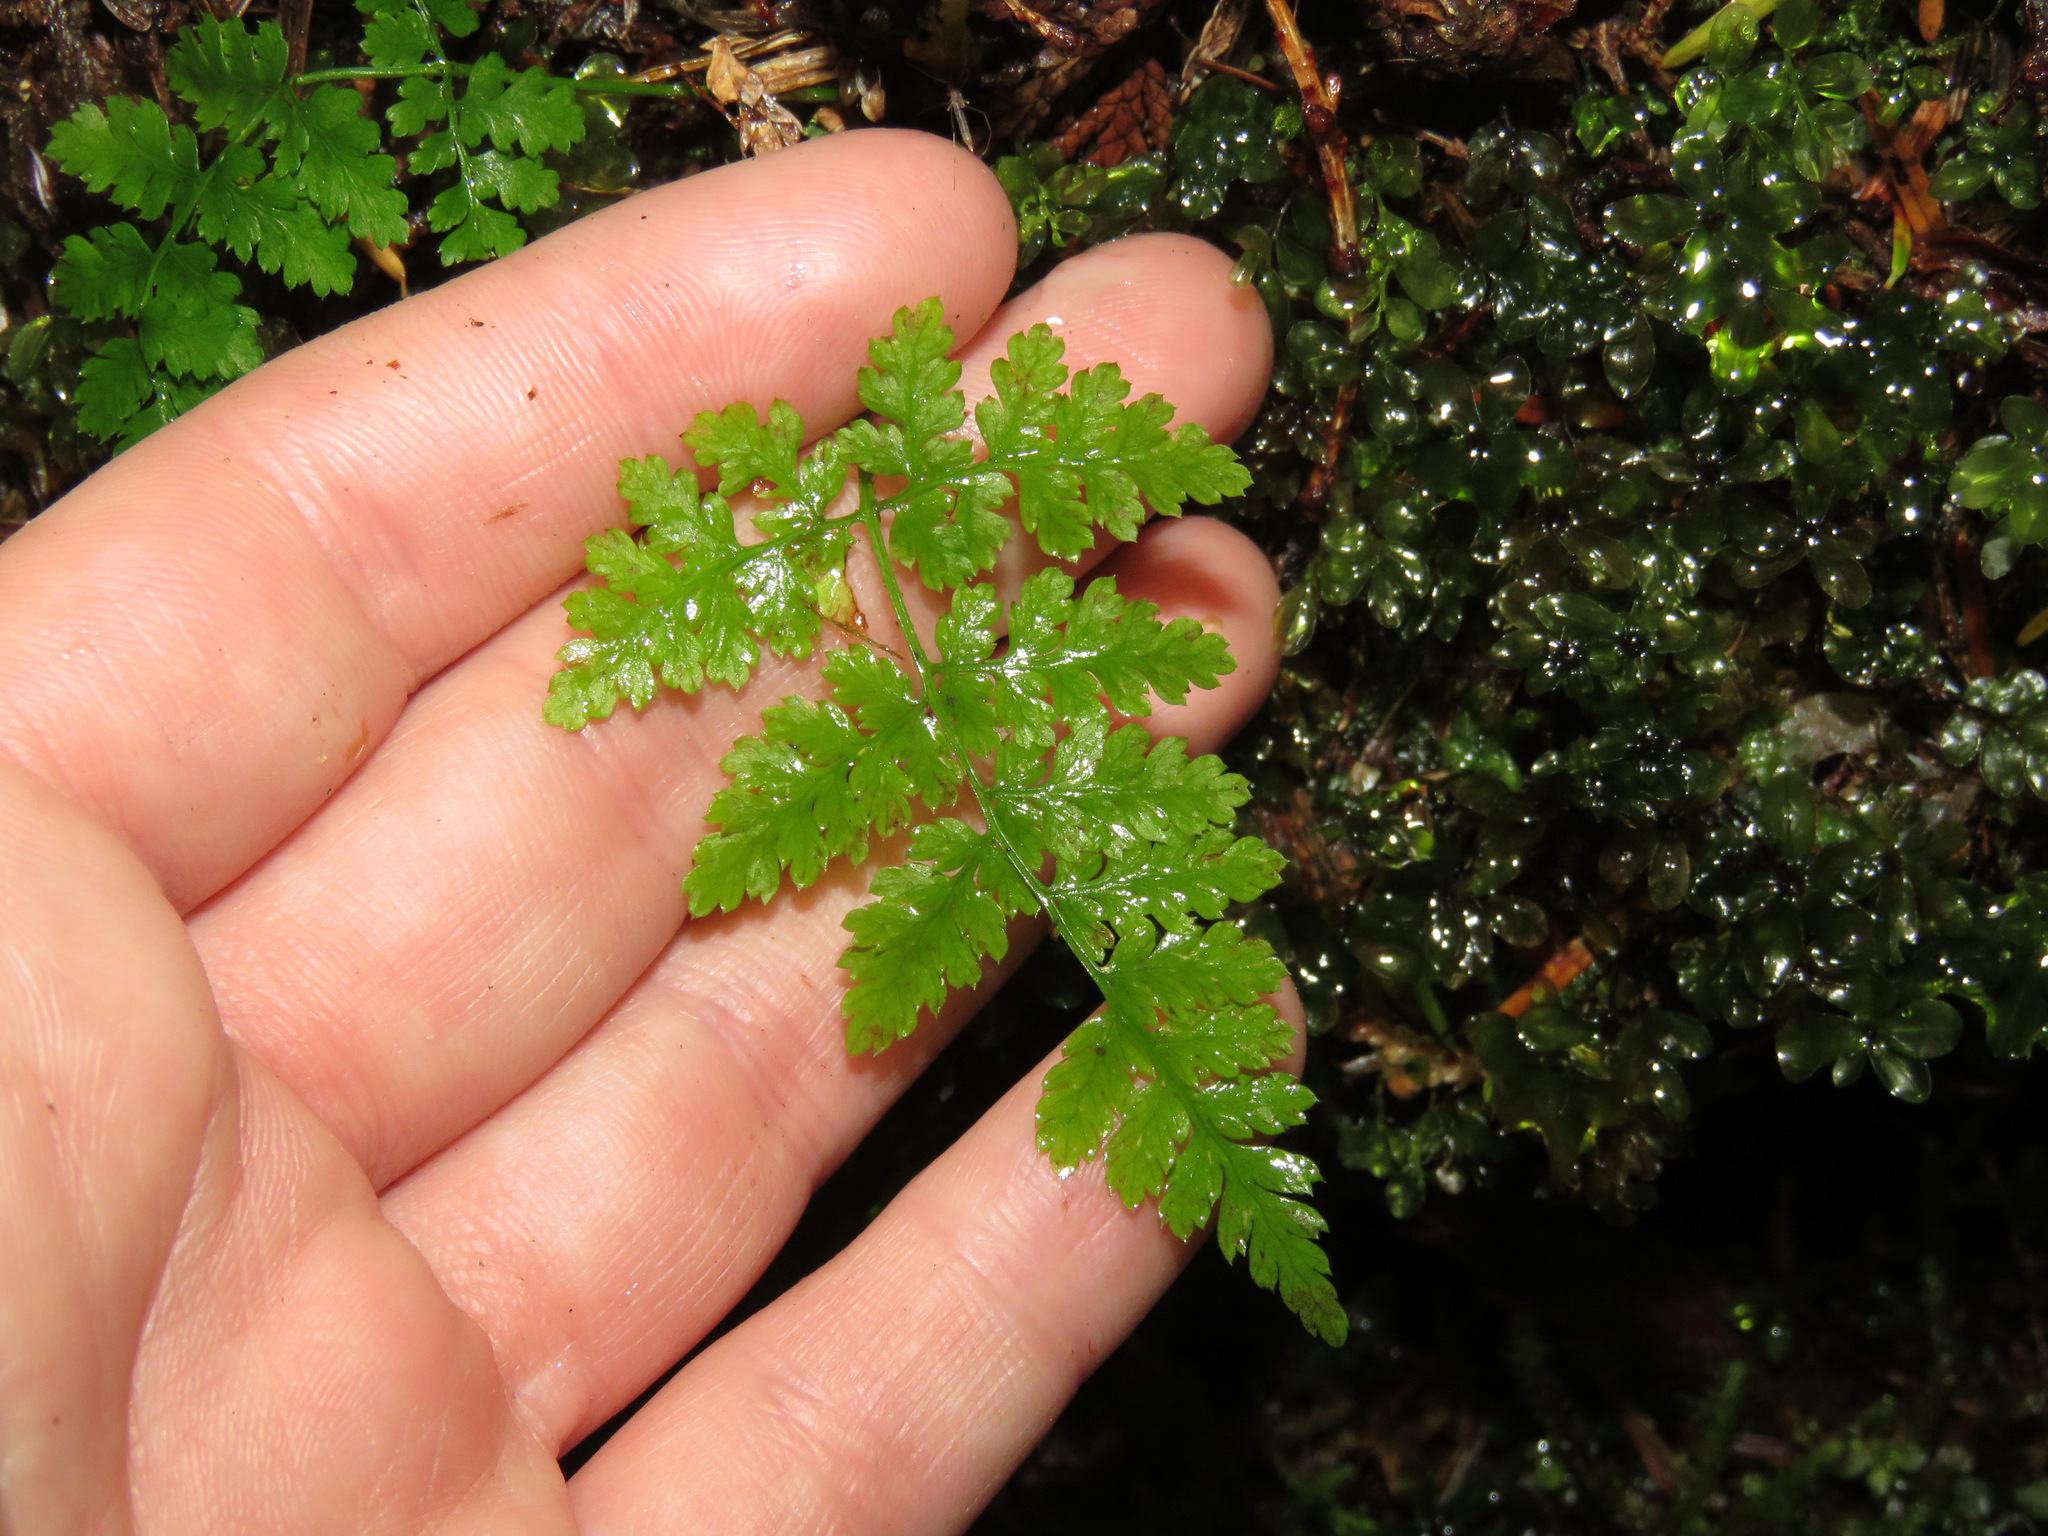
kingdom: Plantae
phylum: Tracheophyta
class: Polypodiopsida
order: Polypodiales
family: Dryopteridaceae
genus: Dryopteris
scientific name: Dryopteris expansa
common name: Northern buckler fern
